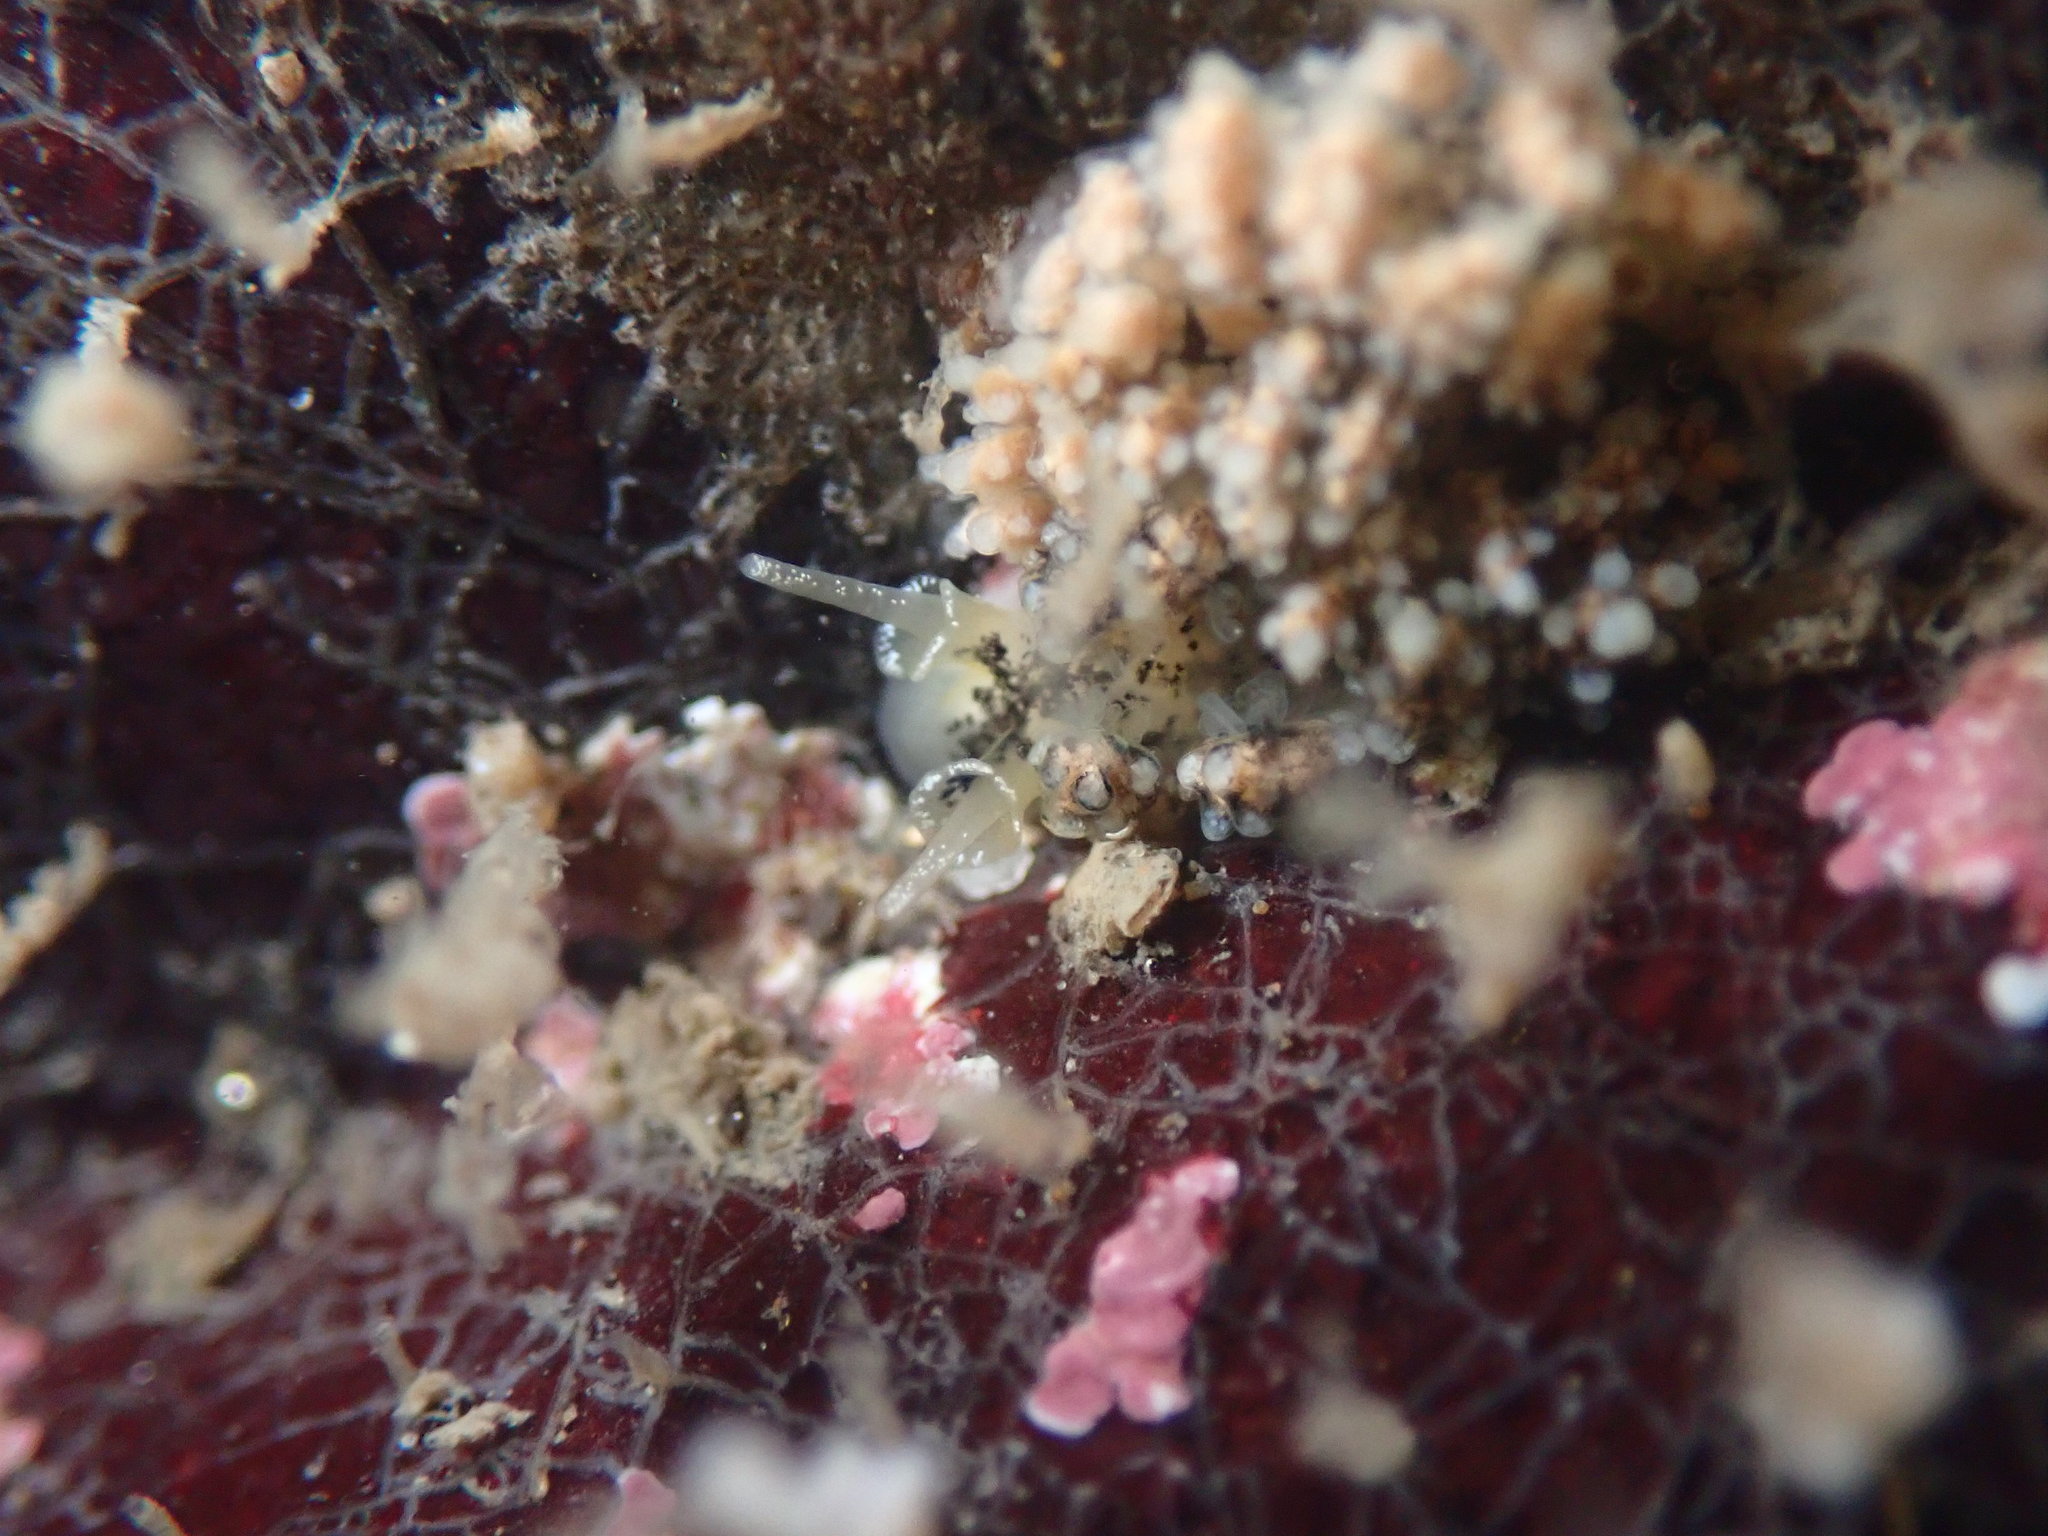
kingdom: Animalia
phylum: Mollusca
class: Gastropoda
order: Nudibranchia
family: Dotidae
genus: Doto
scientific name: Doto kya
